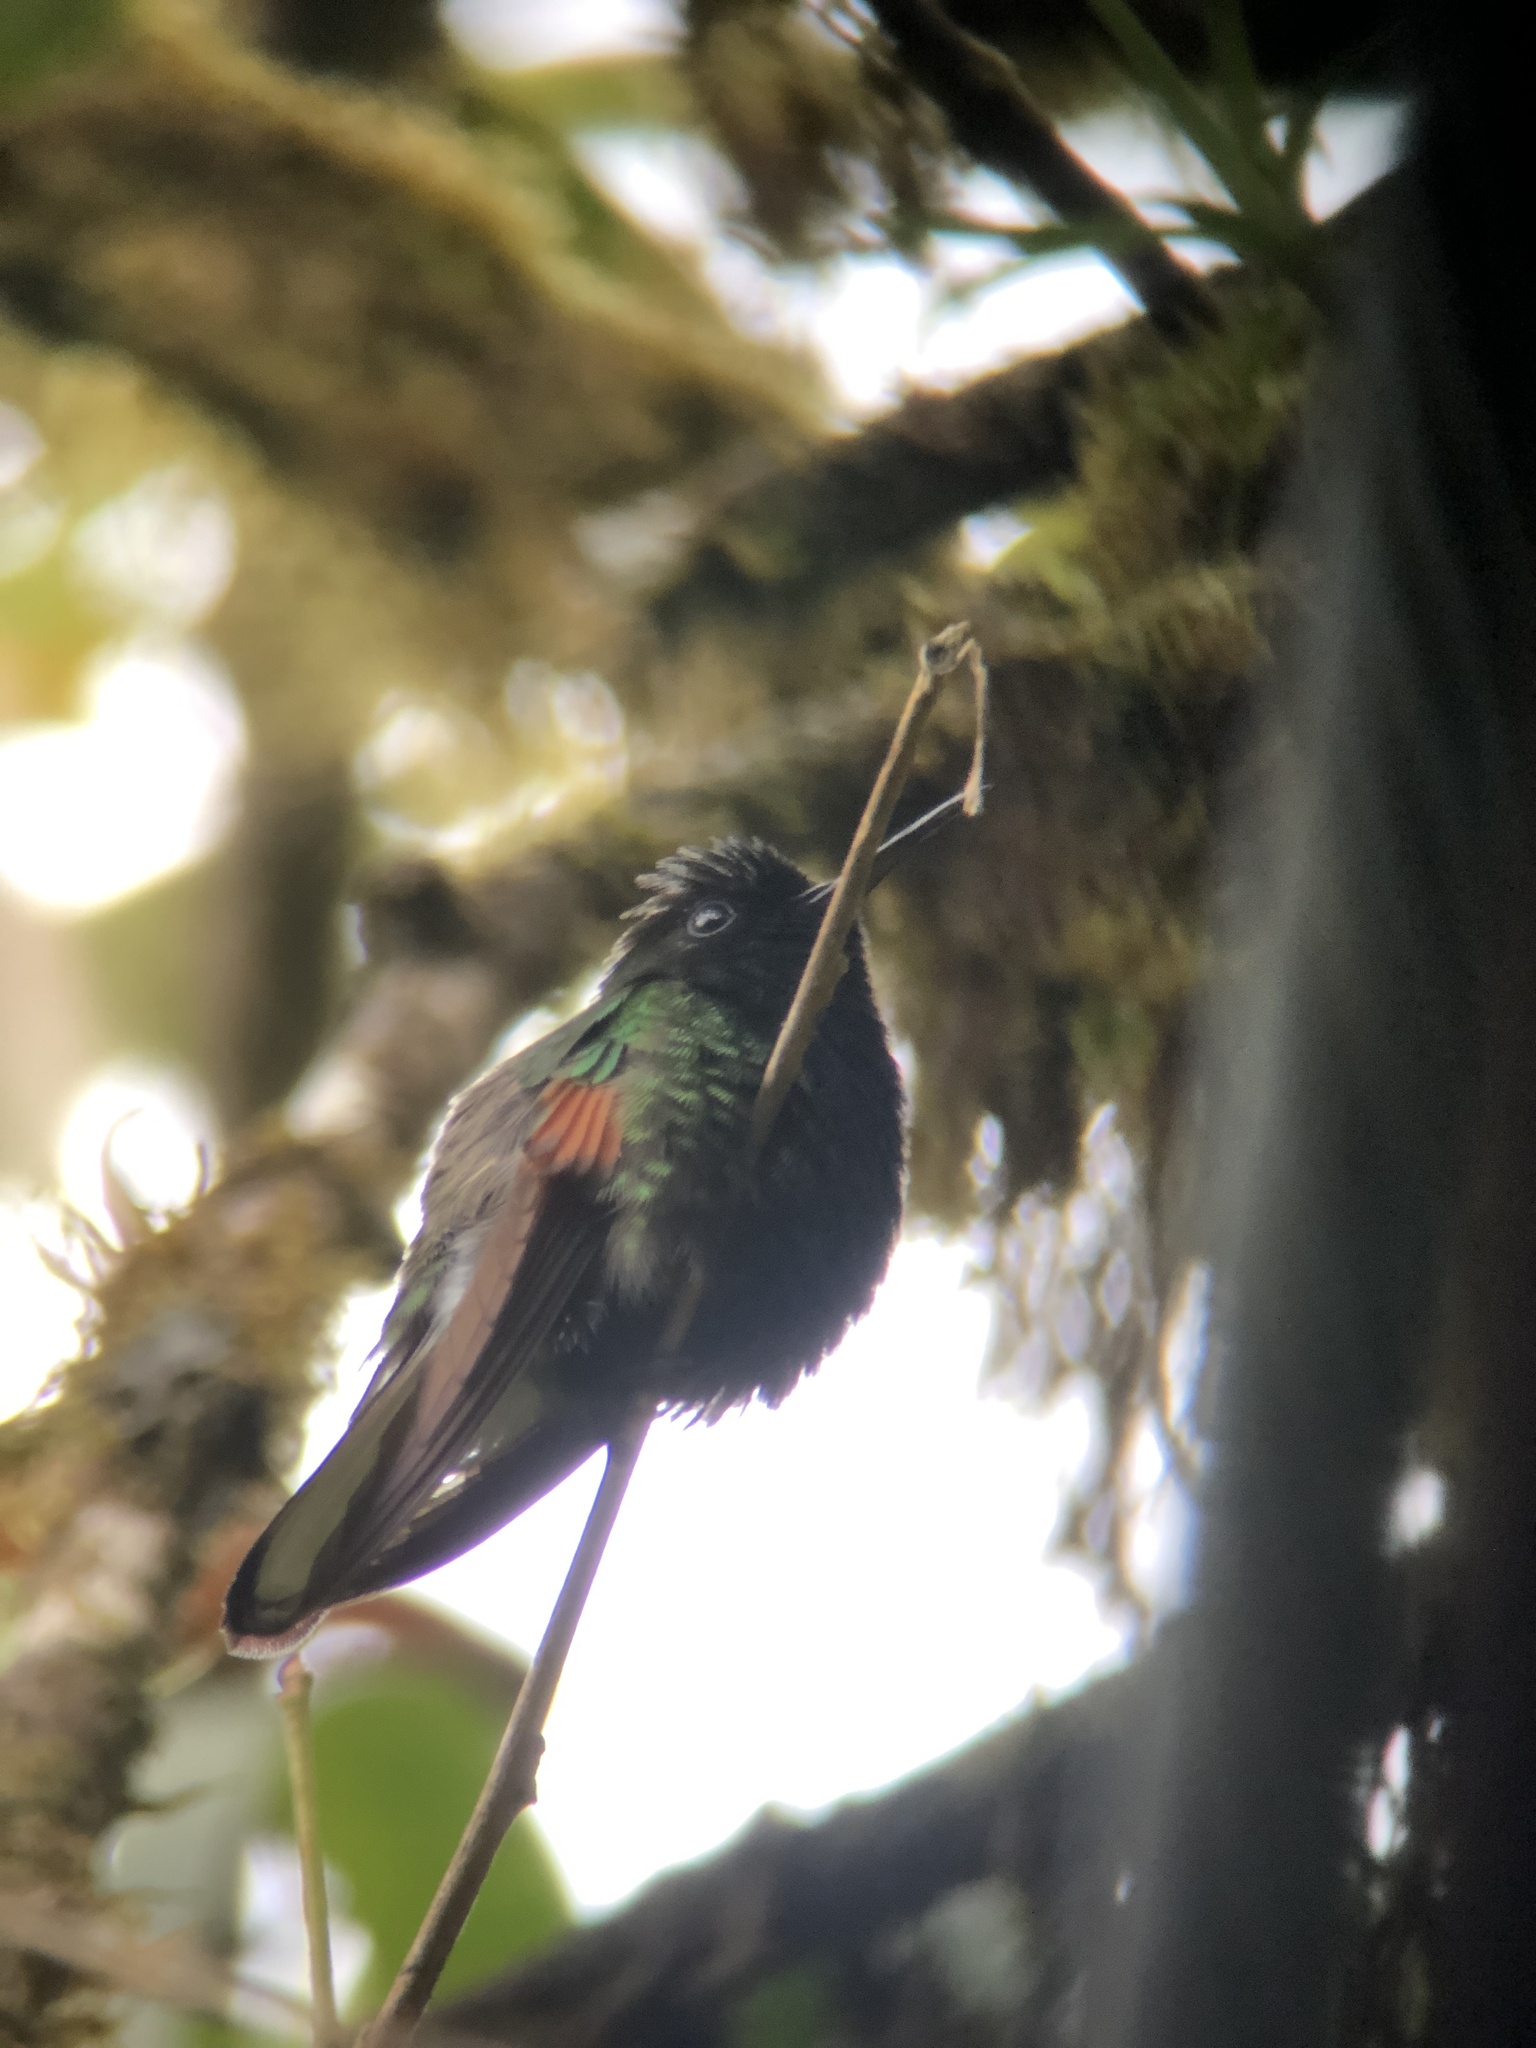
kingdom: Animalia
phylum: Chordata
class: Aves
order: Apodiformes
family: Trochilidae
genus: Eupherusa
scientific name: Eupherusa nigriventris
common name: Black-bellied hummingbird
